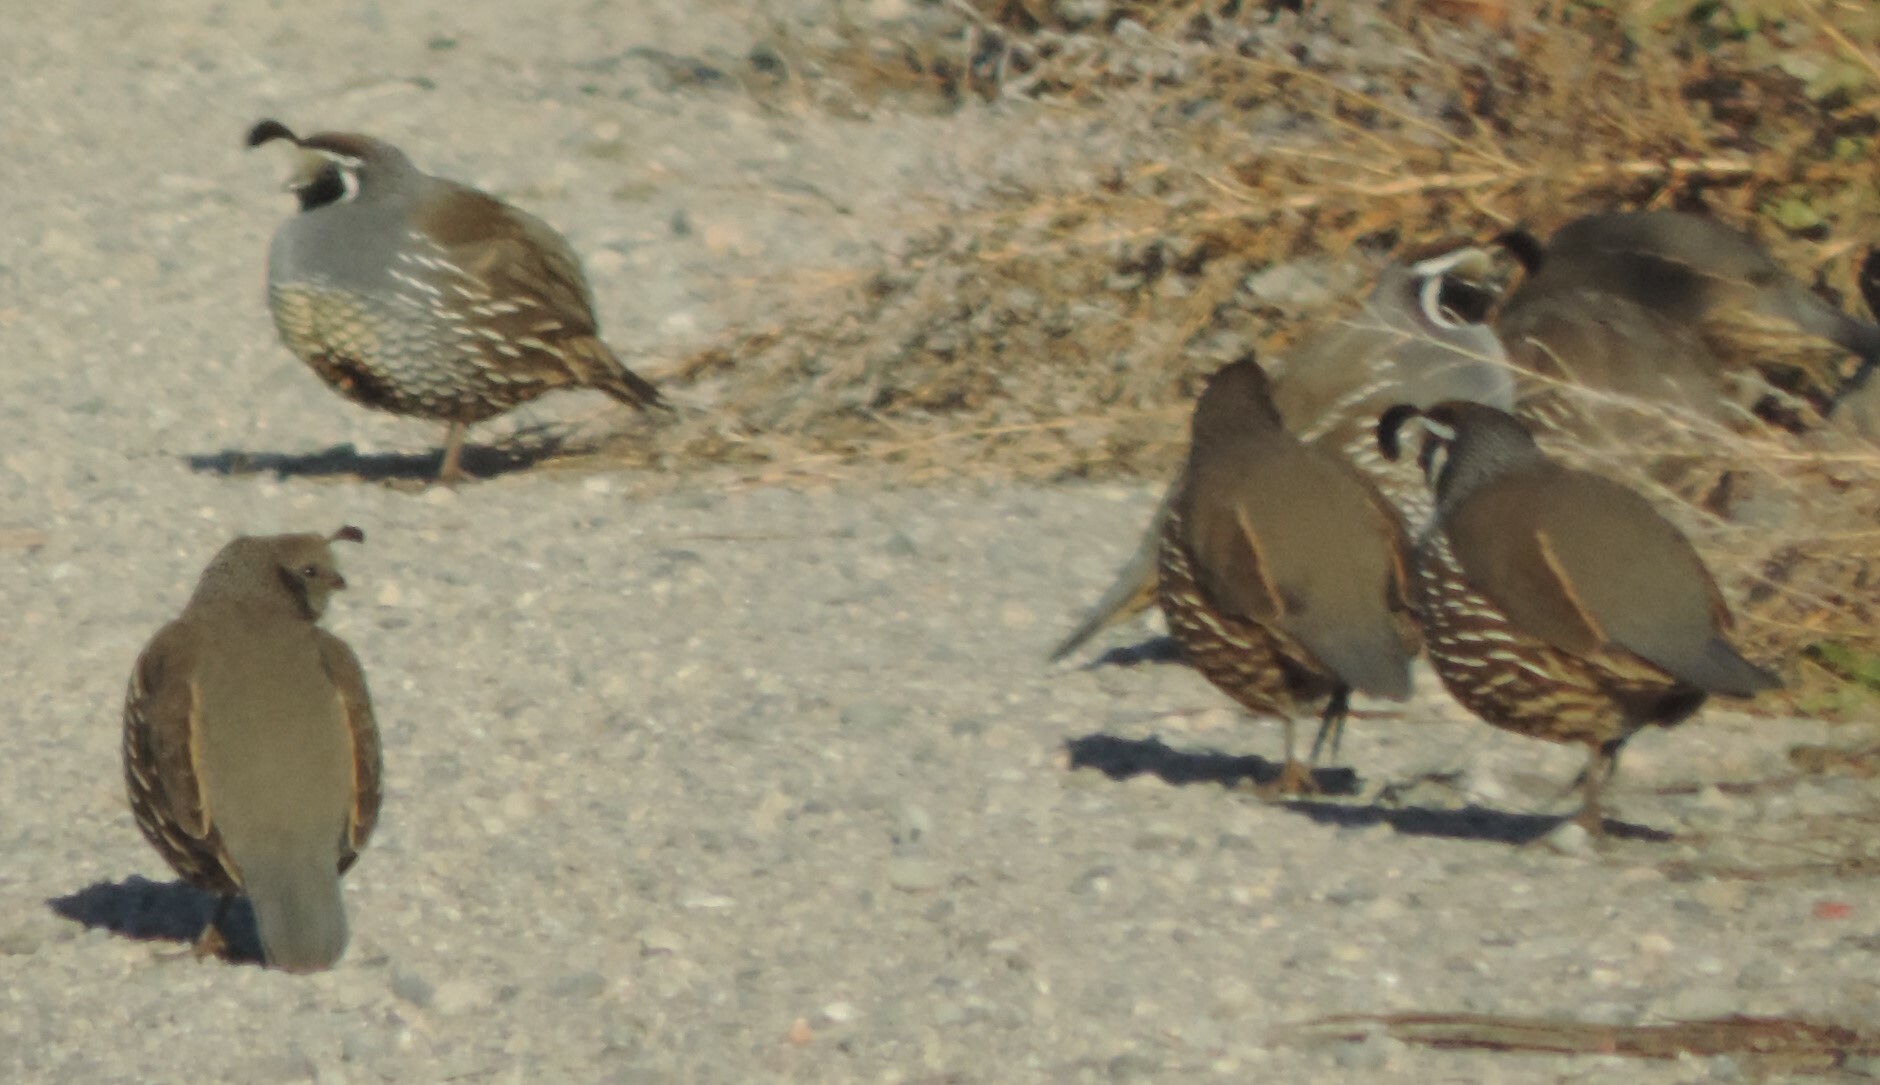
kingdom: Animalia
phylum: Chordata
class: Aves
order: Galliformes
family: Odontophoridae
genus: Callipepla
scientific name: Callipepla californica
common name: California quail
